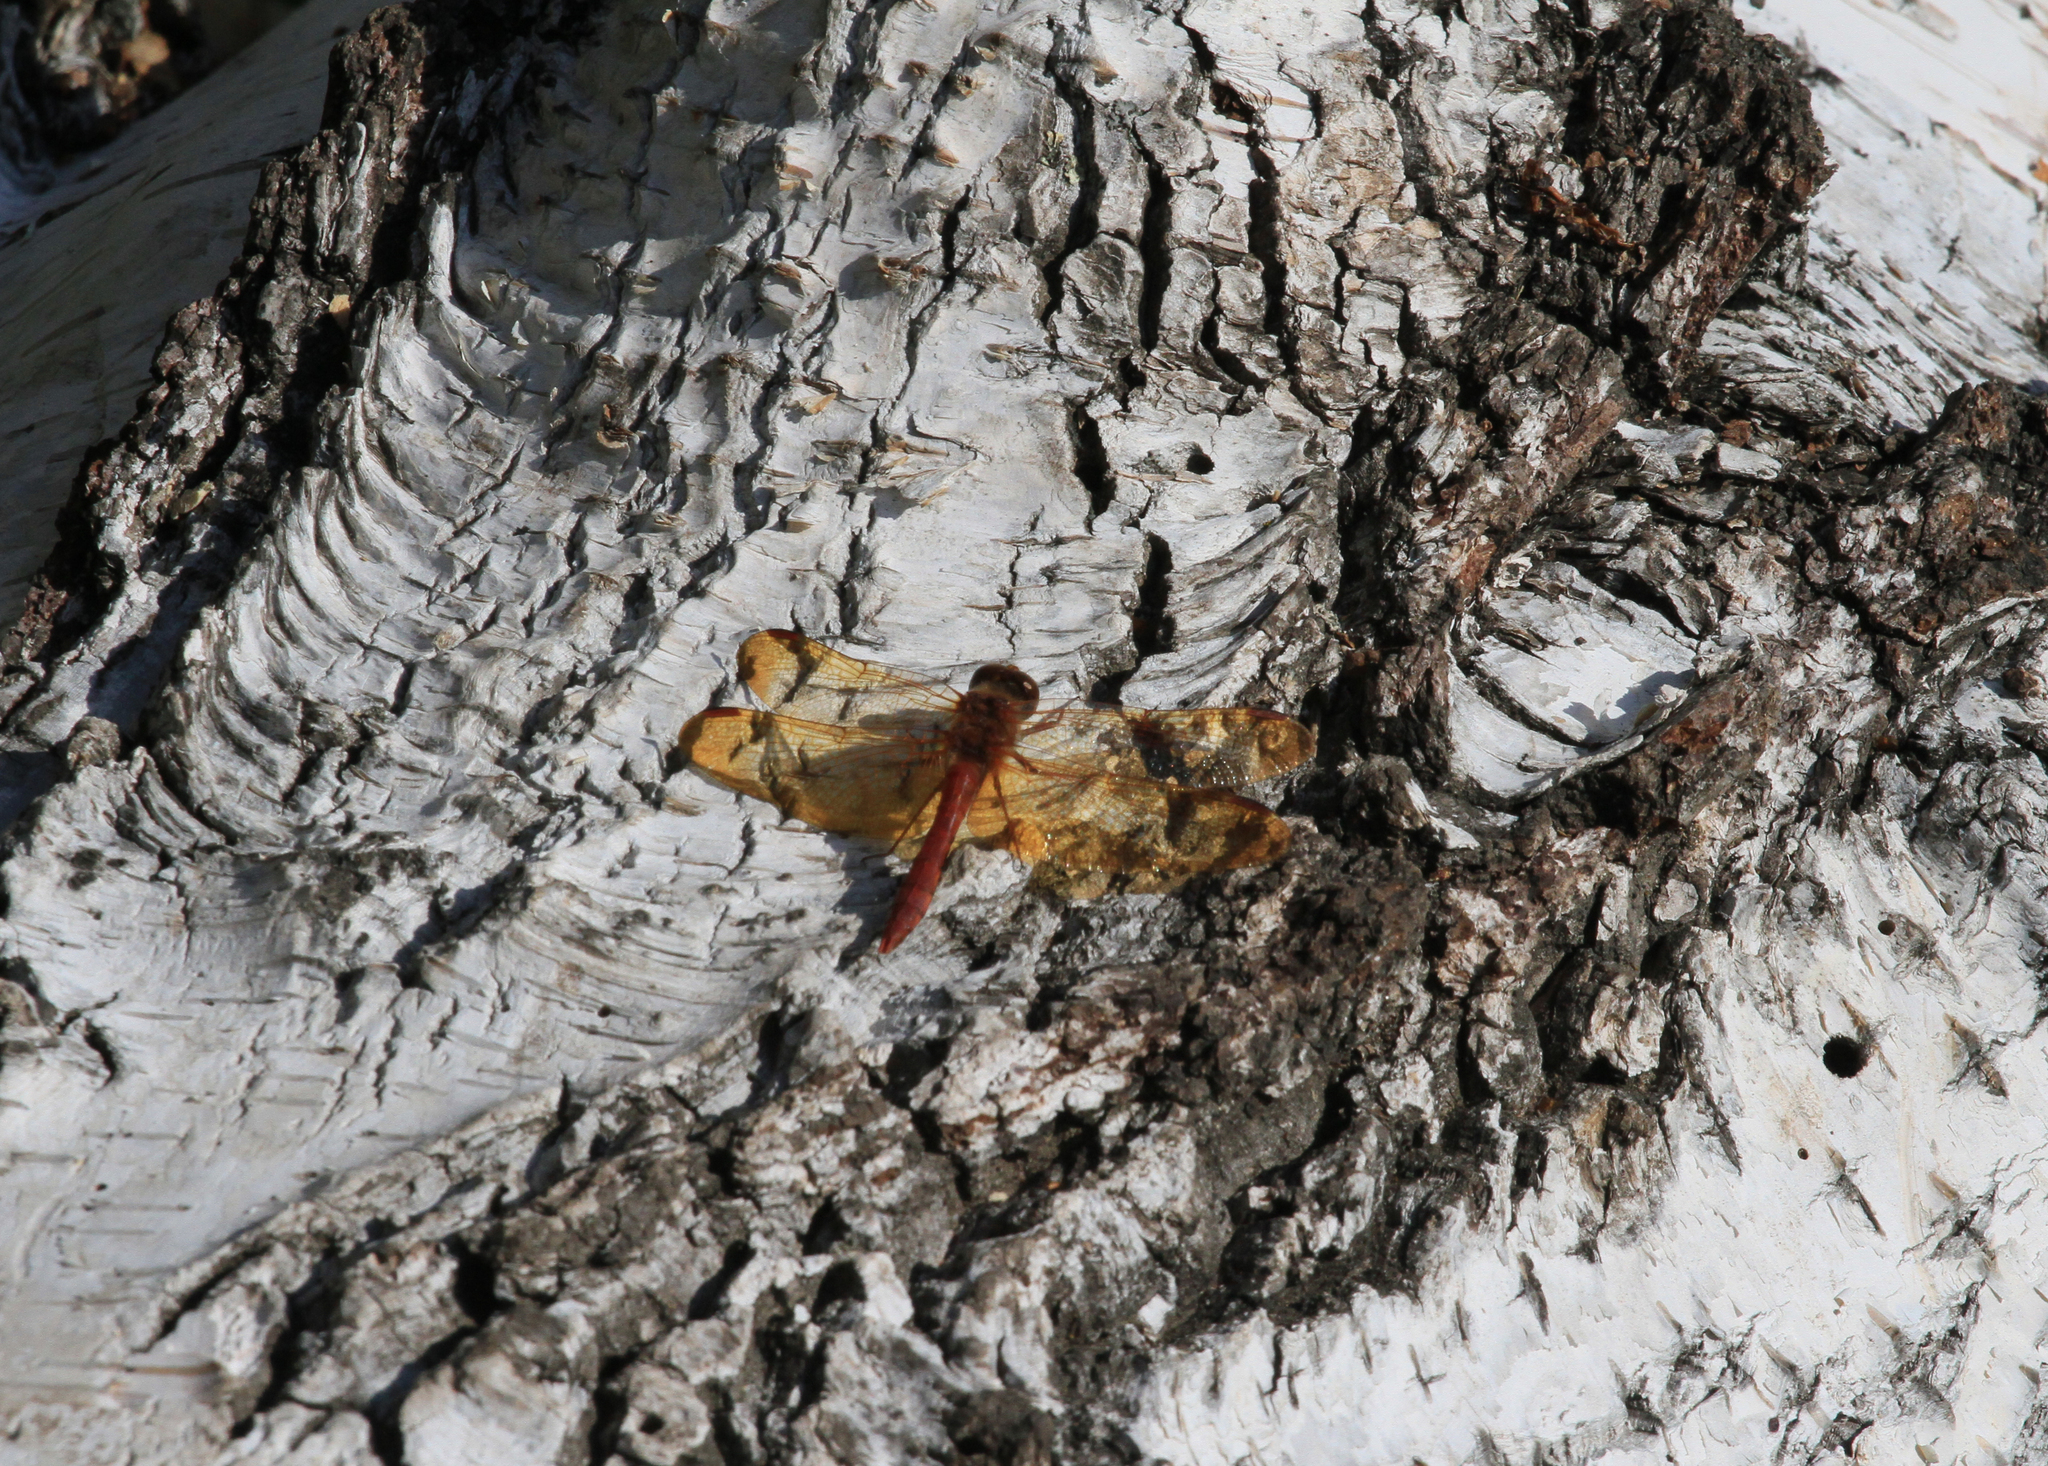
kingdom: Animalia
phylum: Arthropoda
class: Insecta
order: Odonata
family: Libellulidae
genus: Sympetrum
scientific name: Sympetrum croceolum
